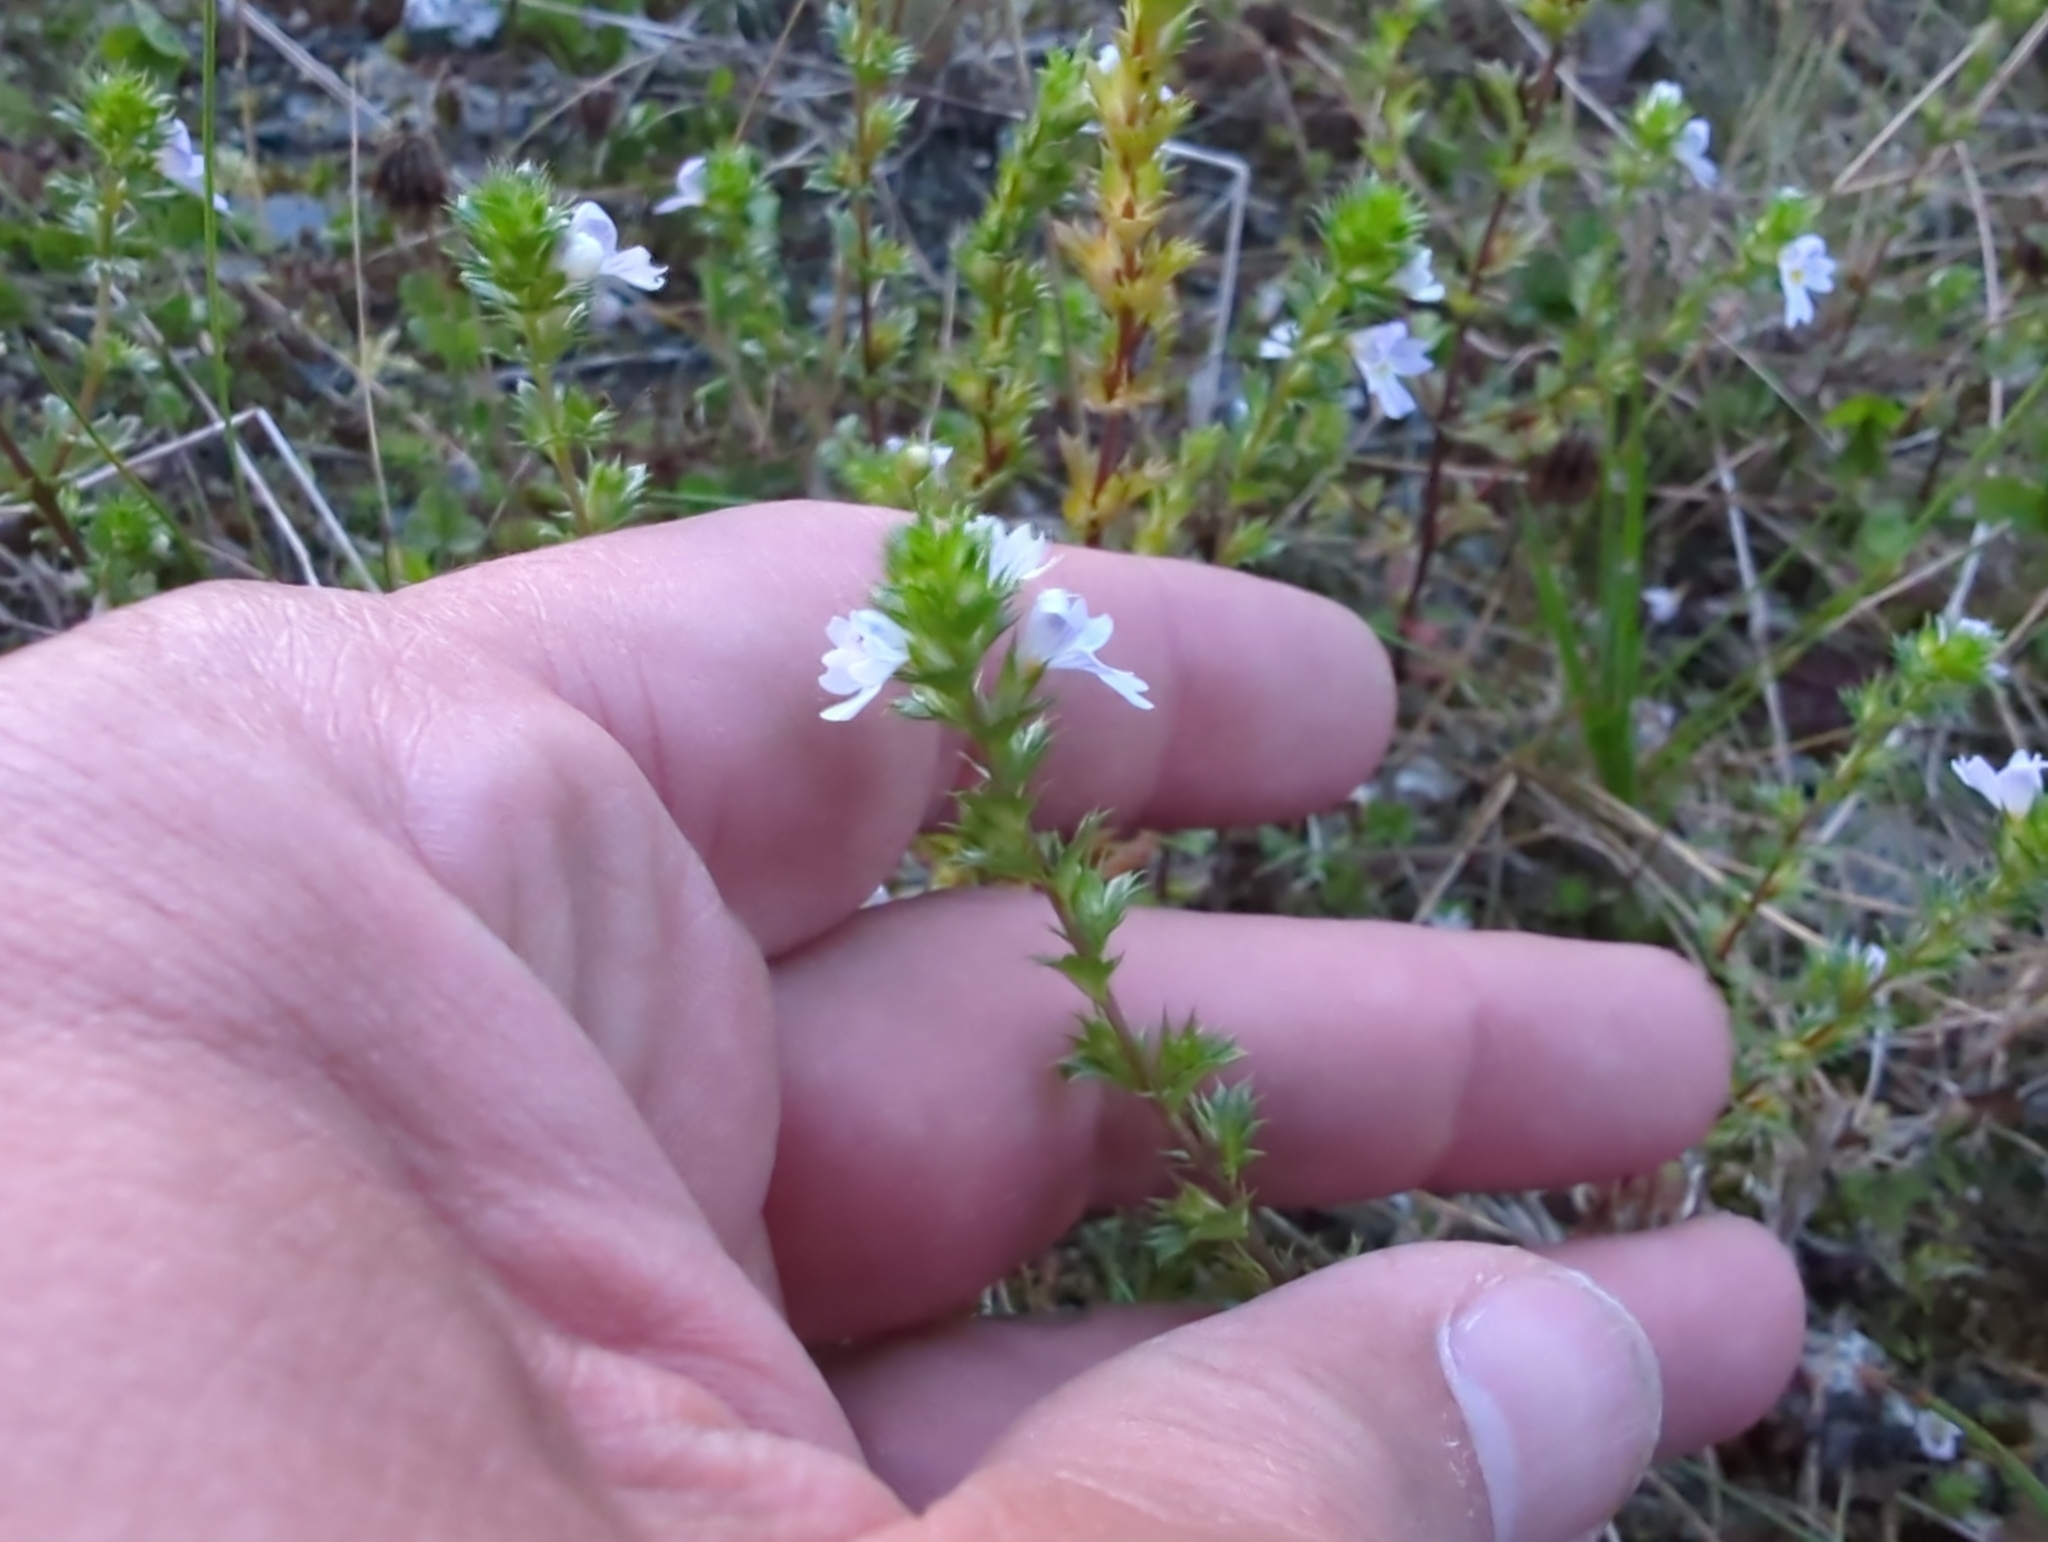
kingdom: Plantae
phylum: Tracheophyta
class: Magnoliopsida
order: Lamiales
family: Orobanchaceae
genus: Euphrasia
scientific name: Euphrasia nemorosa
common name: Common eyebright
